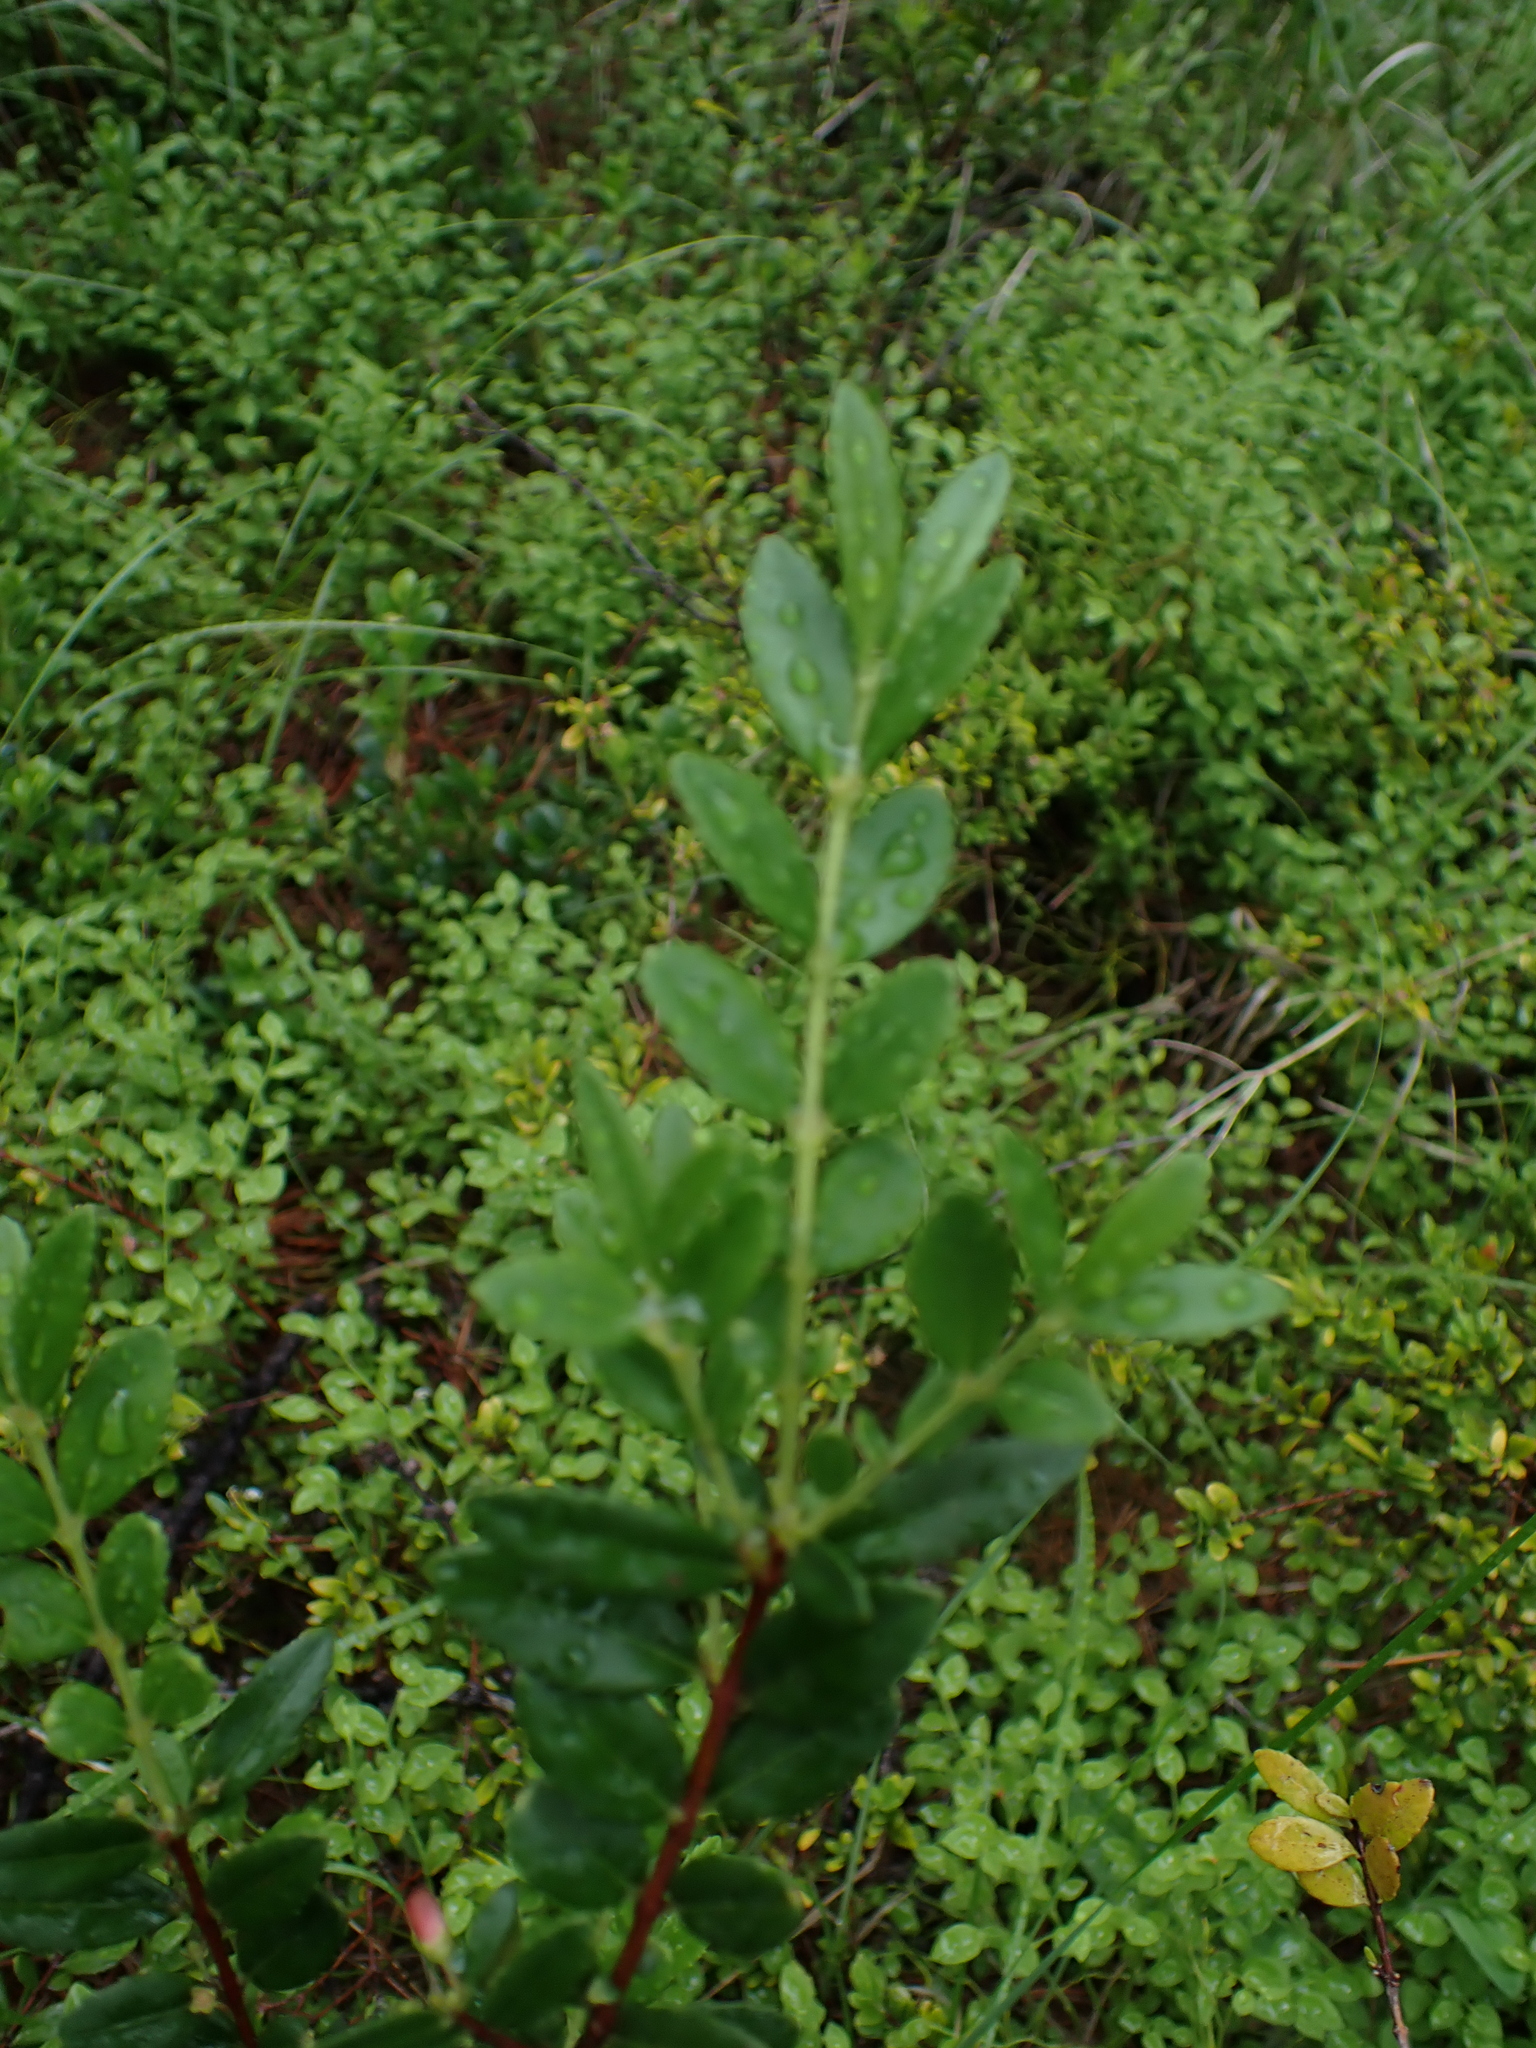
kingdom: Plantae
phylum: Tracheophyta
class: Magnoliopsida
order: Celastrales
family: Celastraceae
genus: Paxistima
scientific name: Paxistima myrsinites
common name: Mountain-lover
